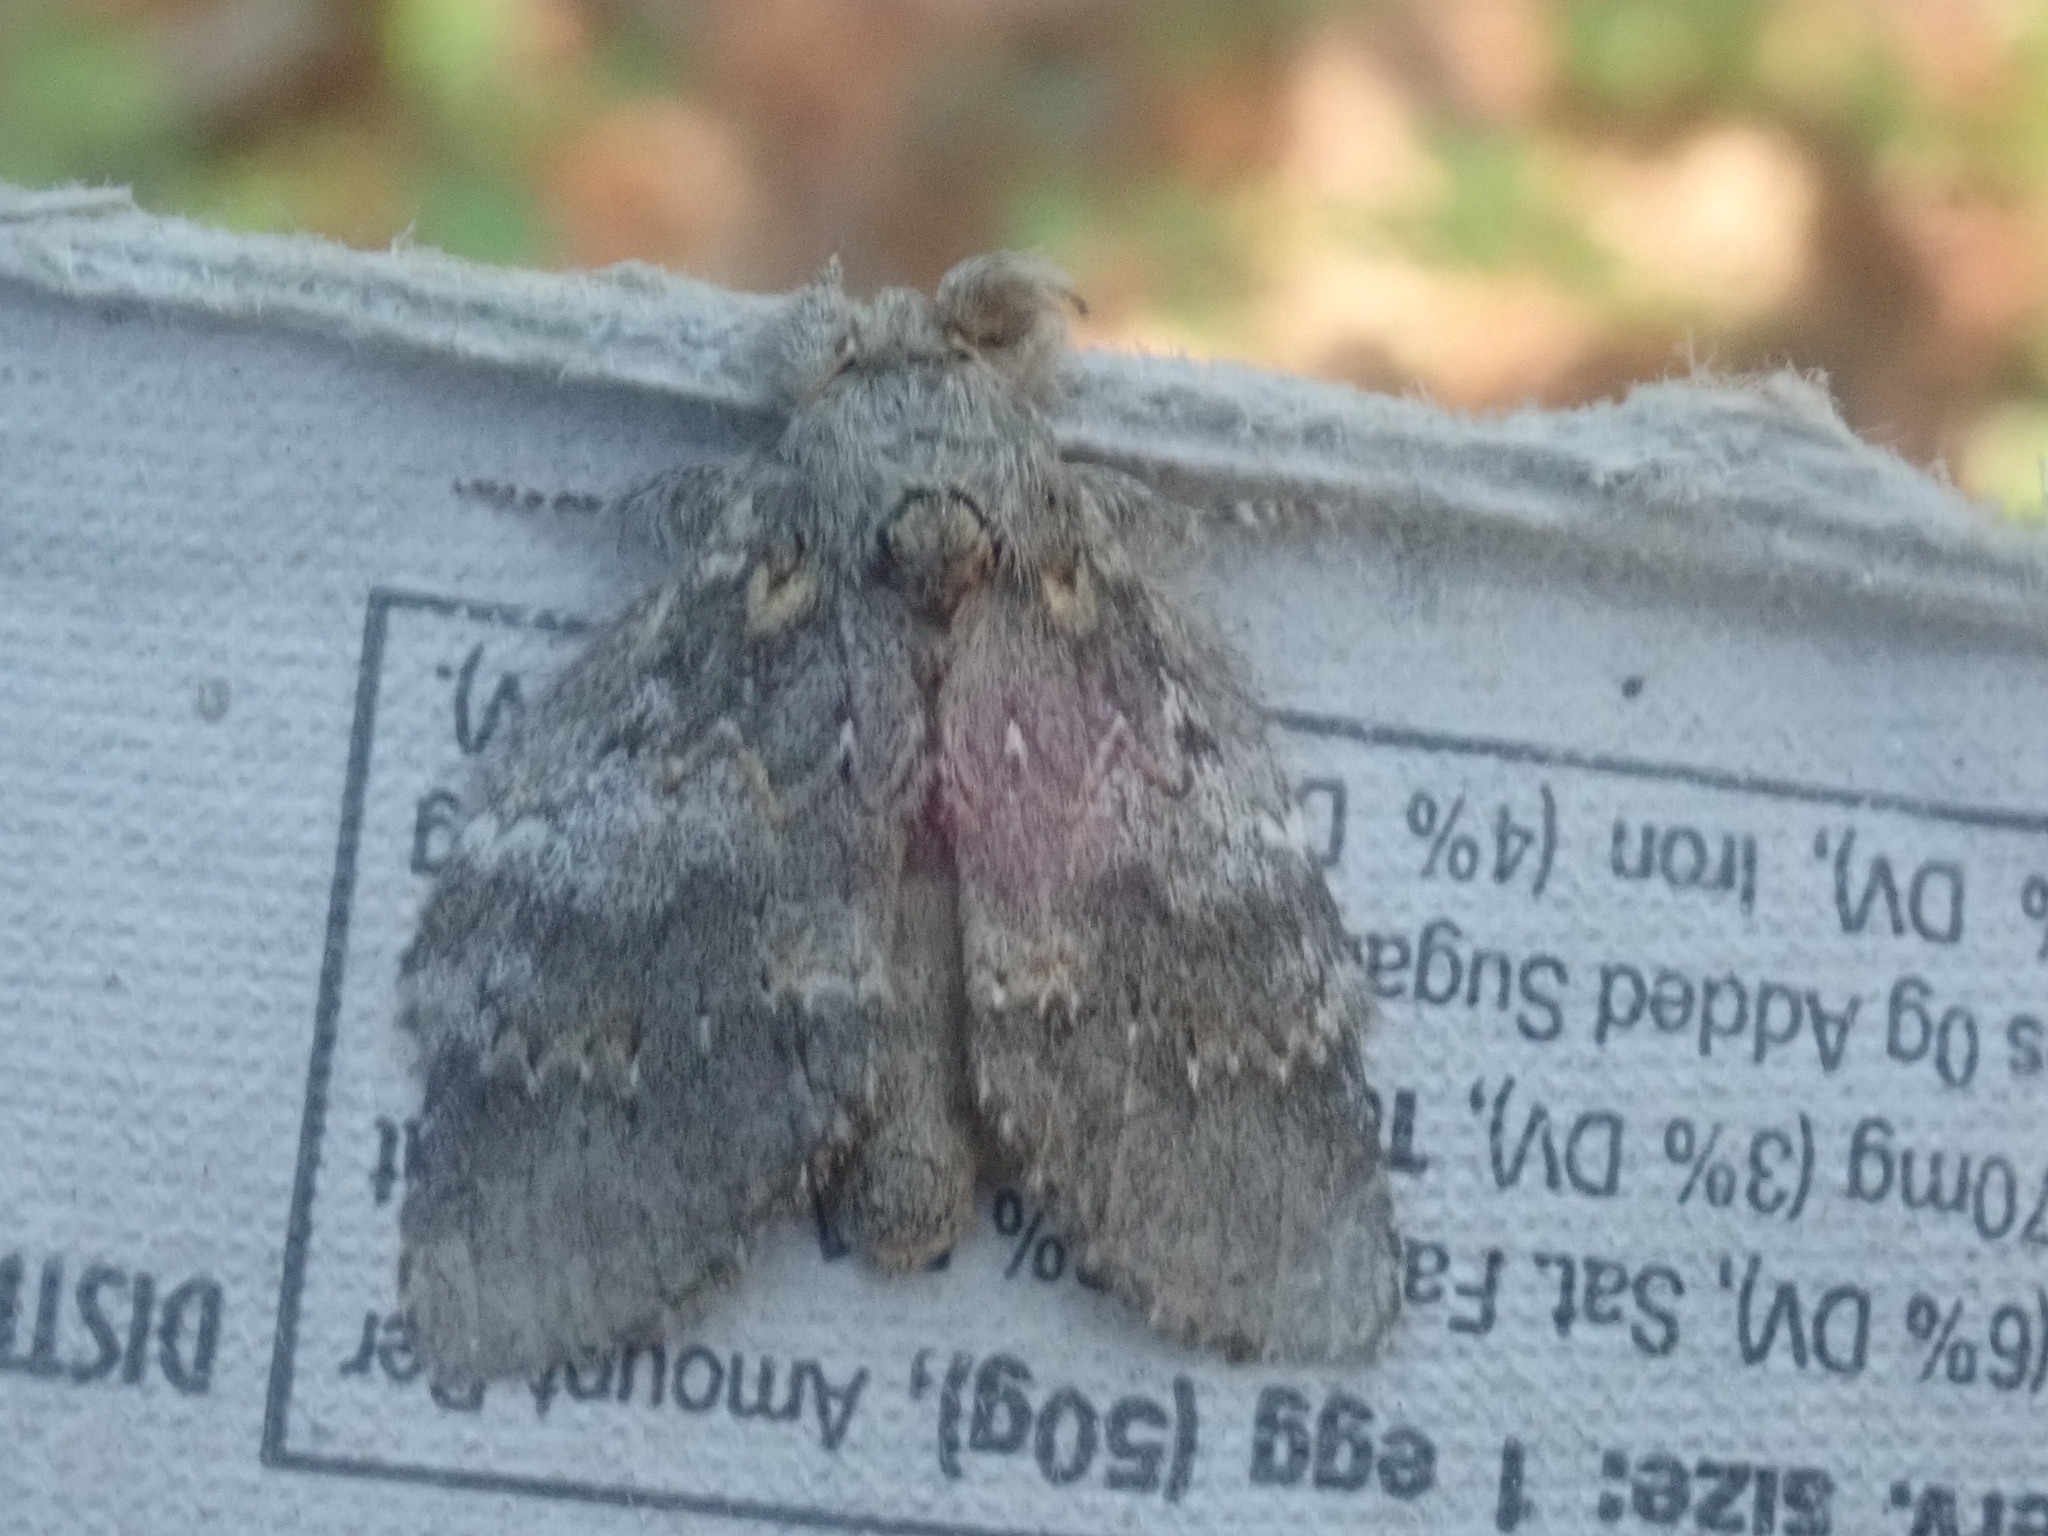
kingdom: Animalia
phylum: Arthropoda
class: Insecta
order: Lepidoptera
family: Notodontidae
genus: Peridea
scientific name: Peridea angulosa
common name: Angulose prominent
